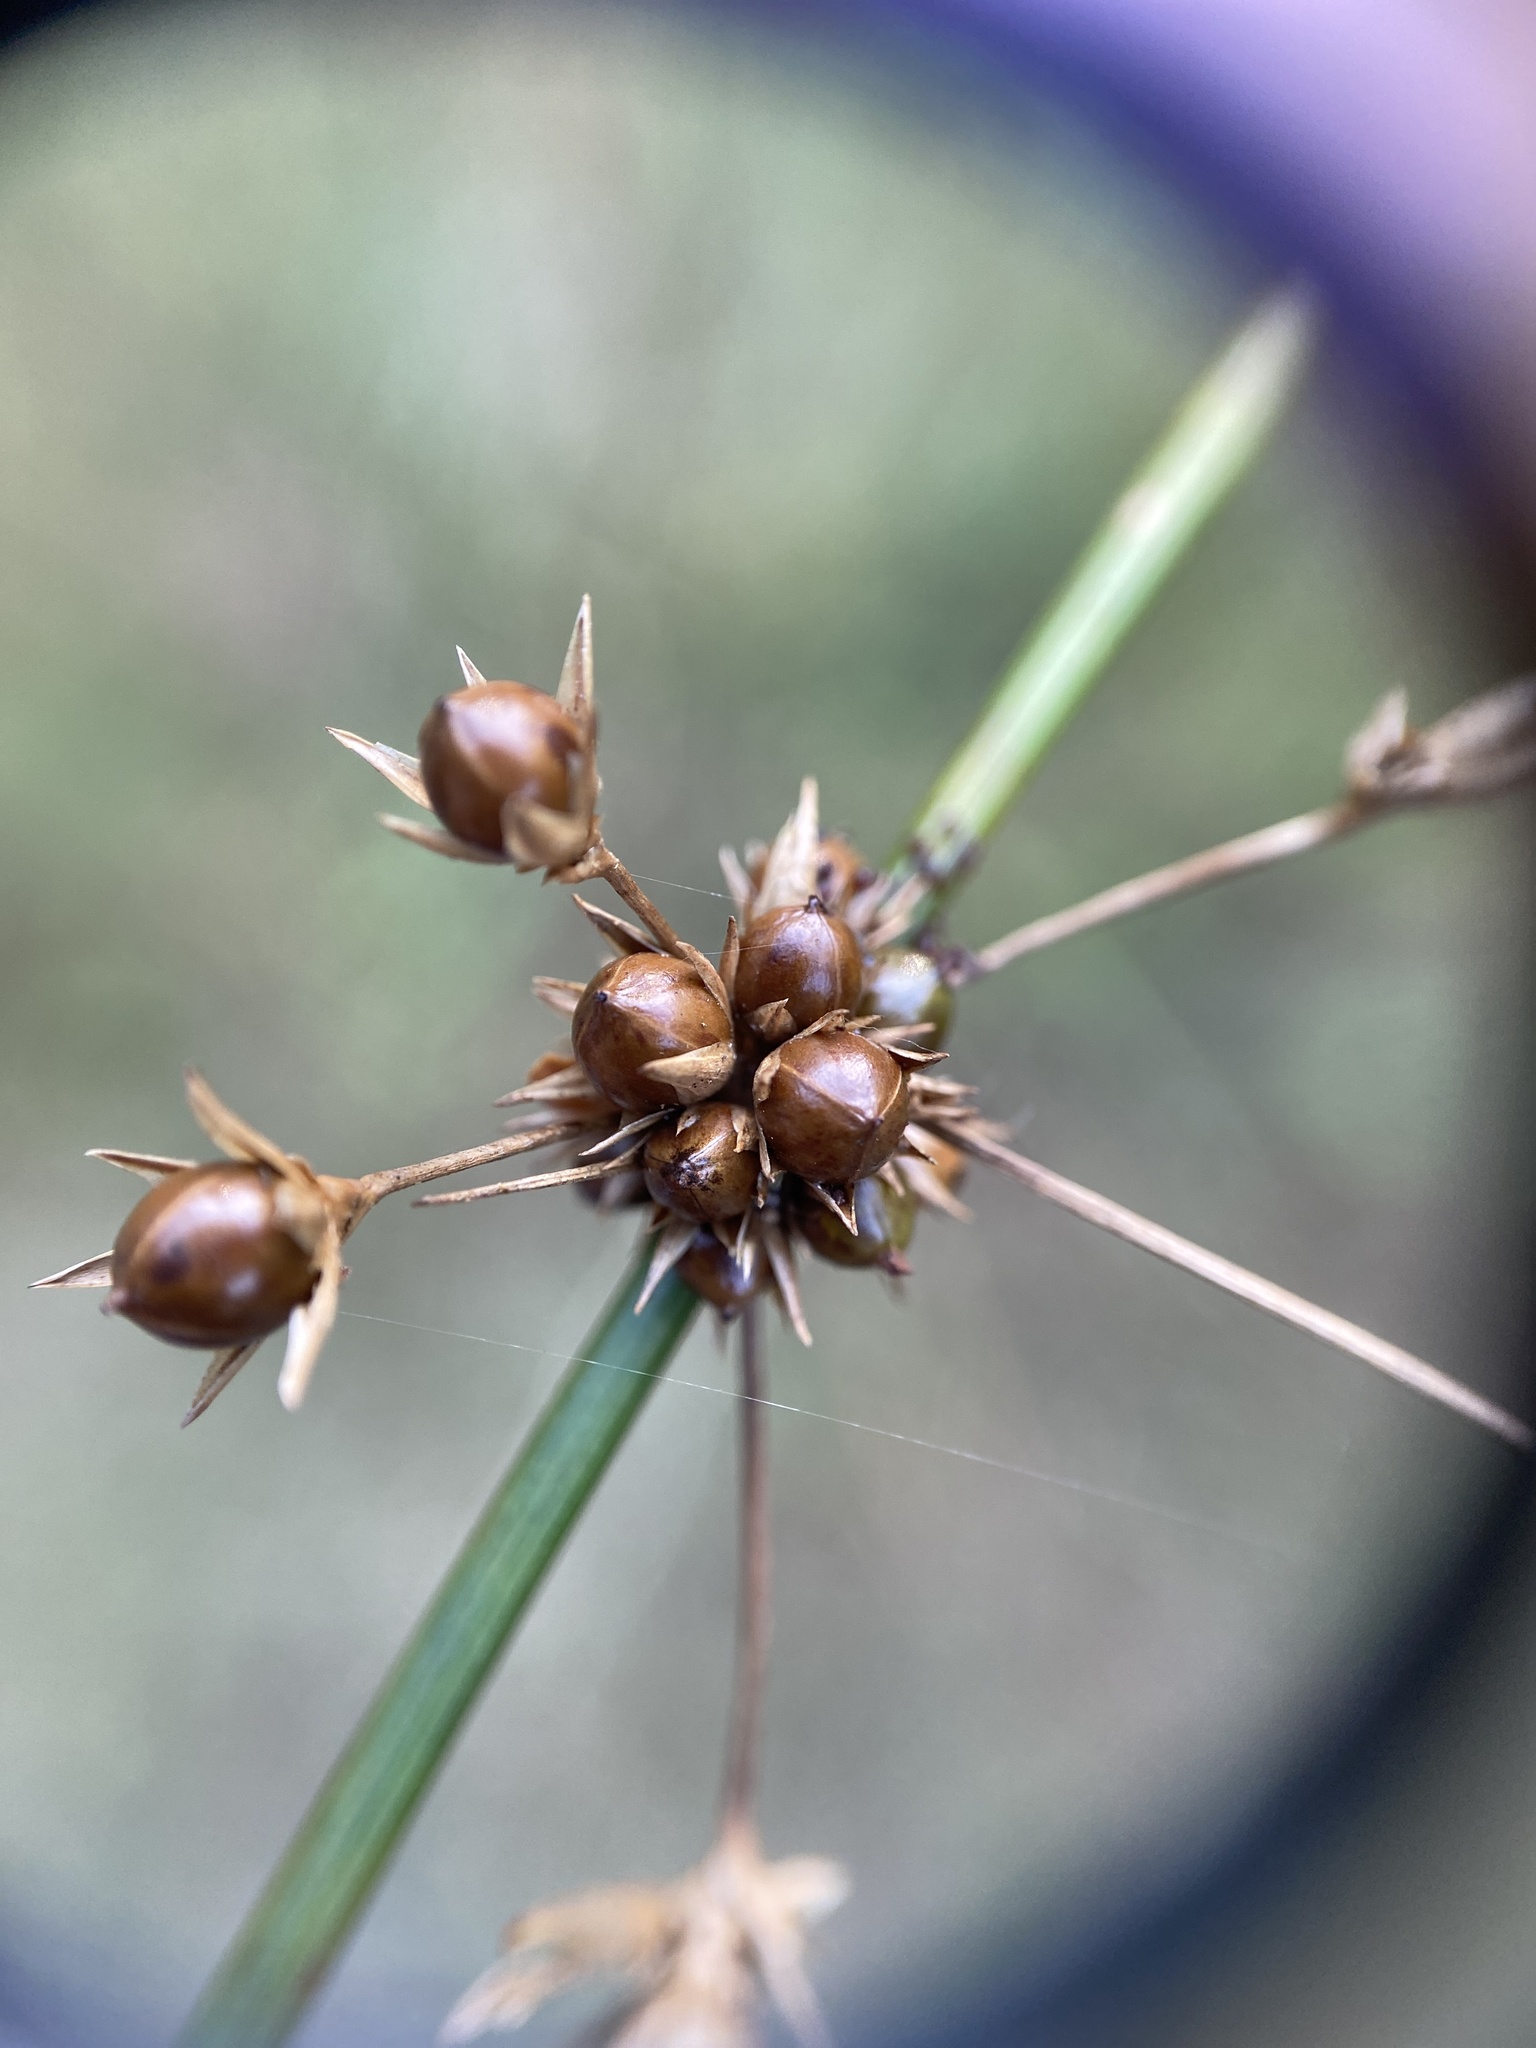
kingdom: Plantae
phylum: Tracheophyta
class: Liliopsida
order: Poales
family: Juncaceae
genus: Juncus
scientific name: Juncus coriaceus
